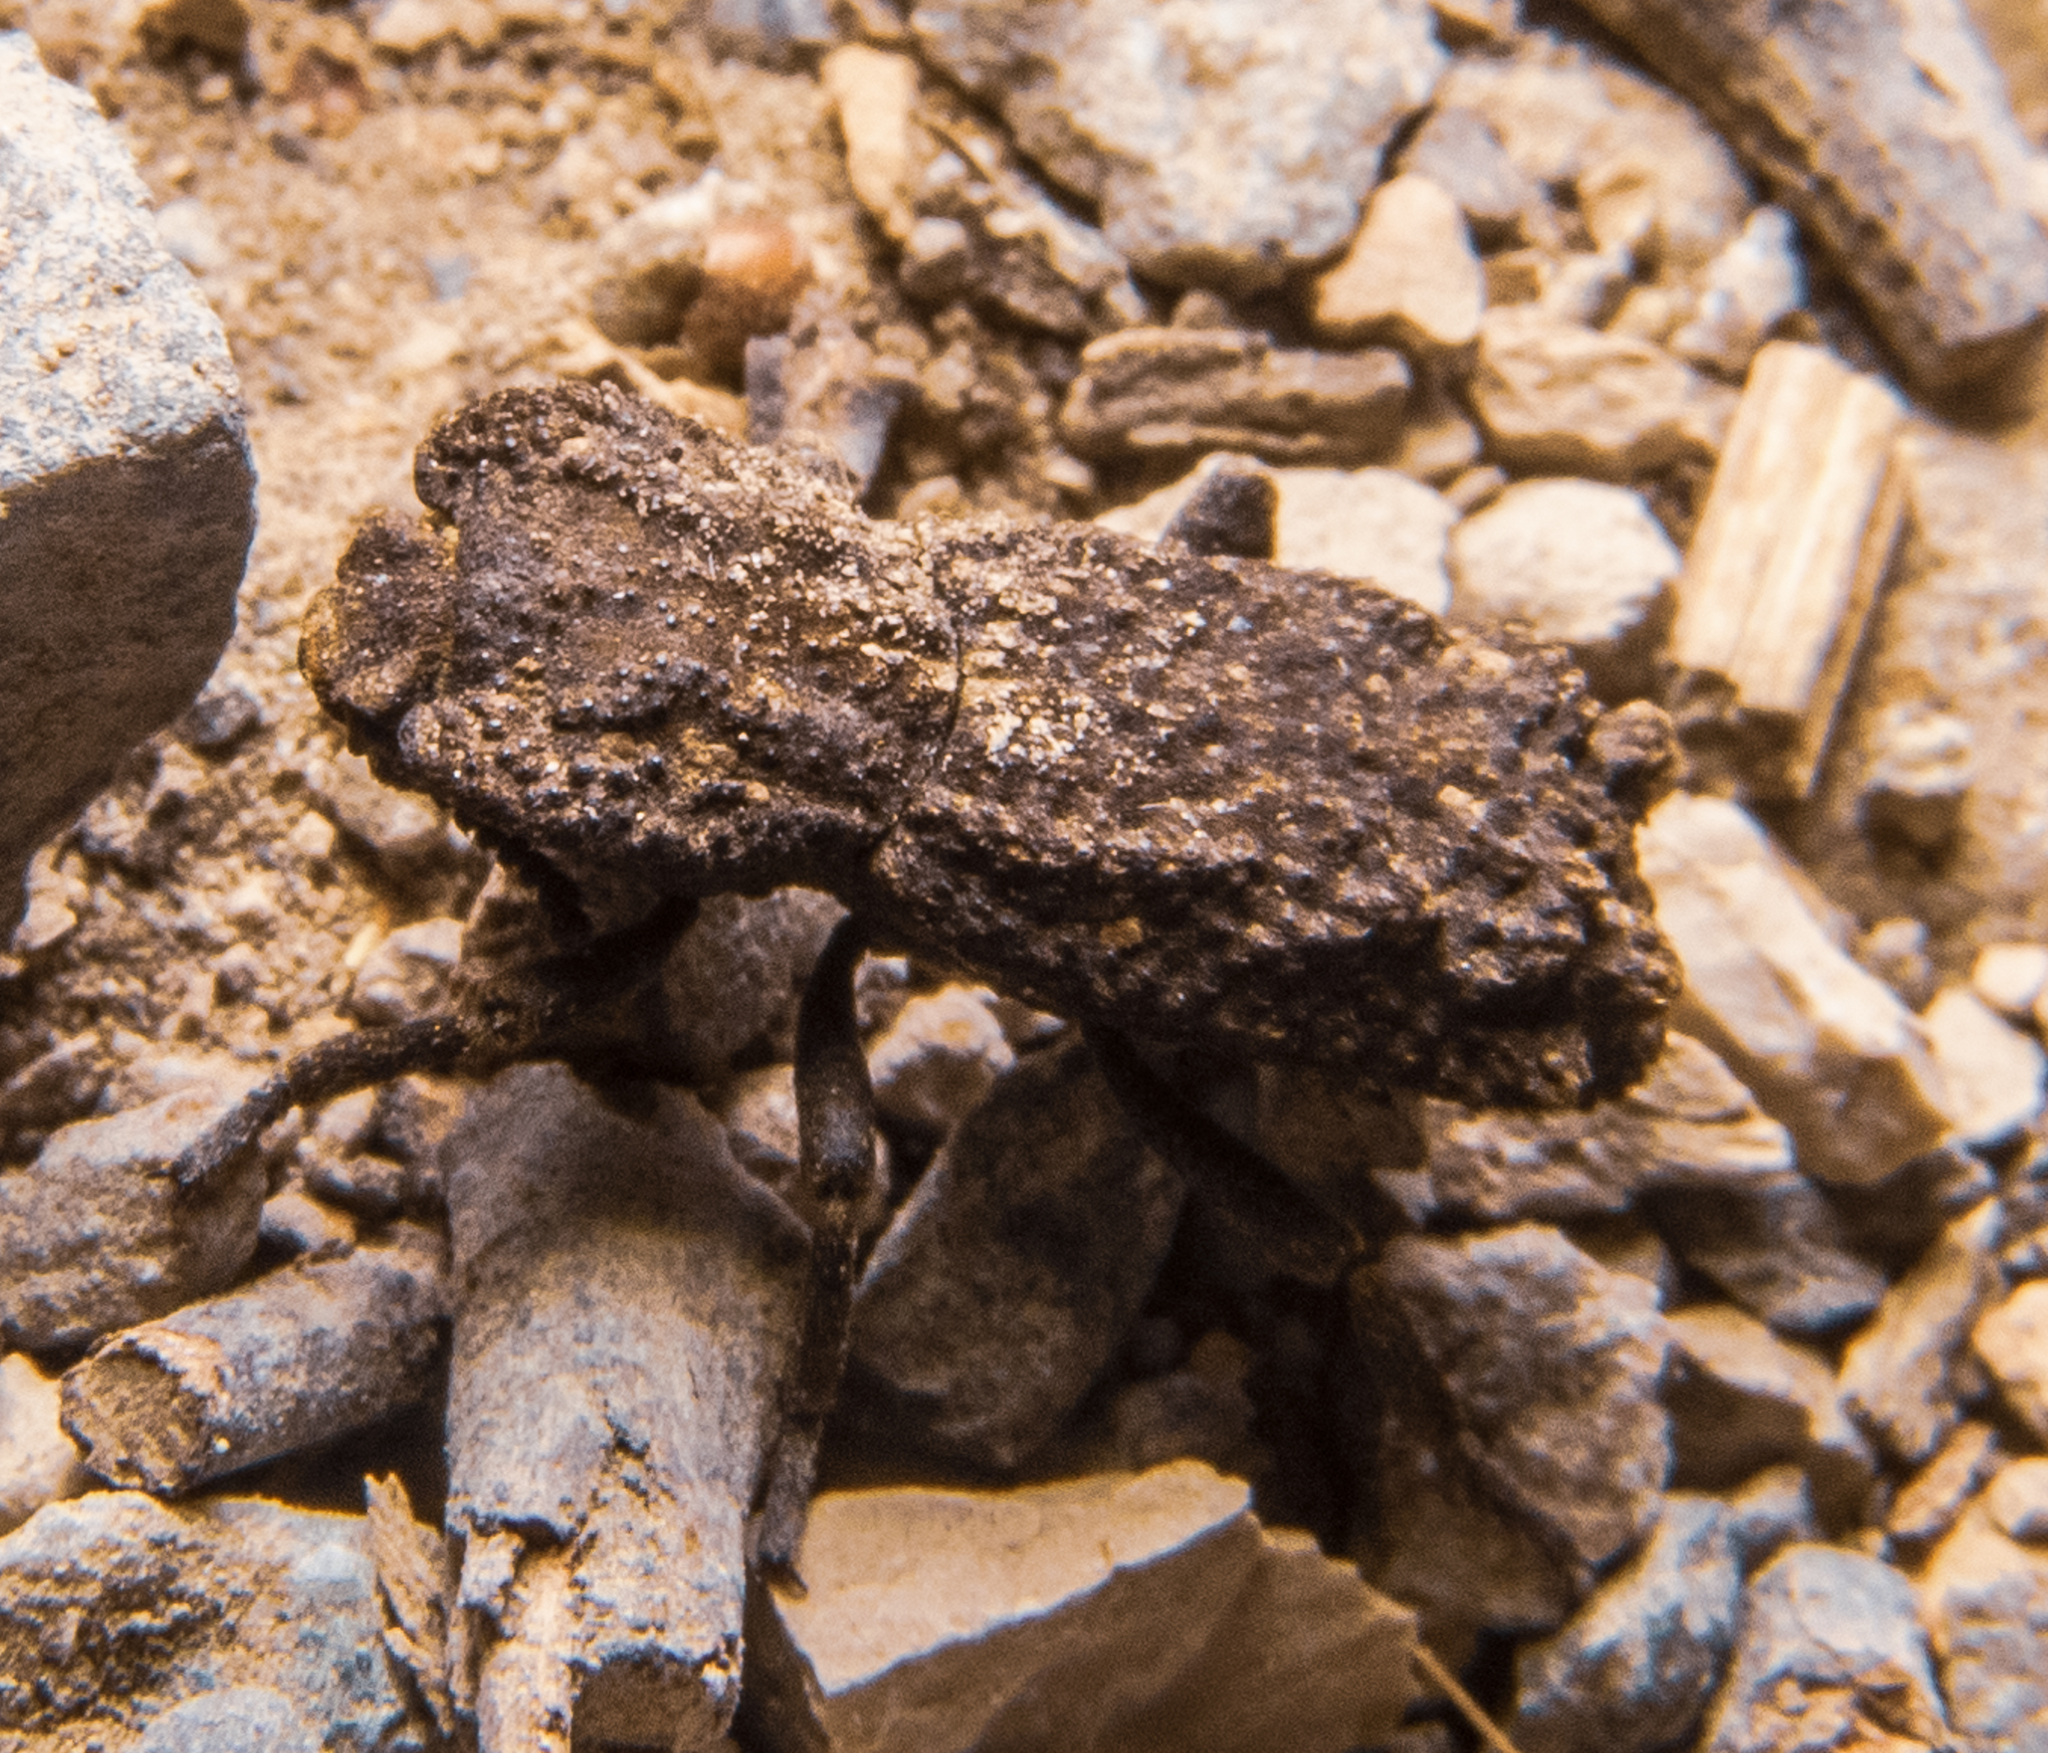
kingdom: Animalia
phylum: Arthropoda
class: Insecta
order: Coleoptera
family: Zopheridae
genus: Phloeodes
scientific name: Phloeodes plicatus
